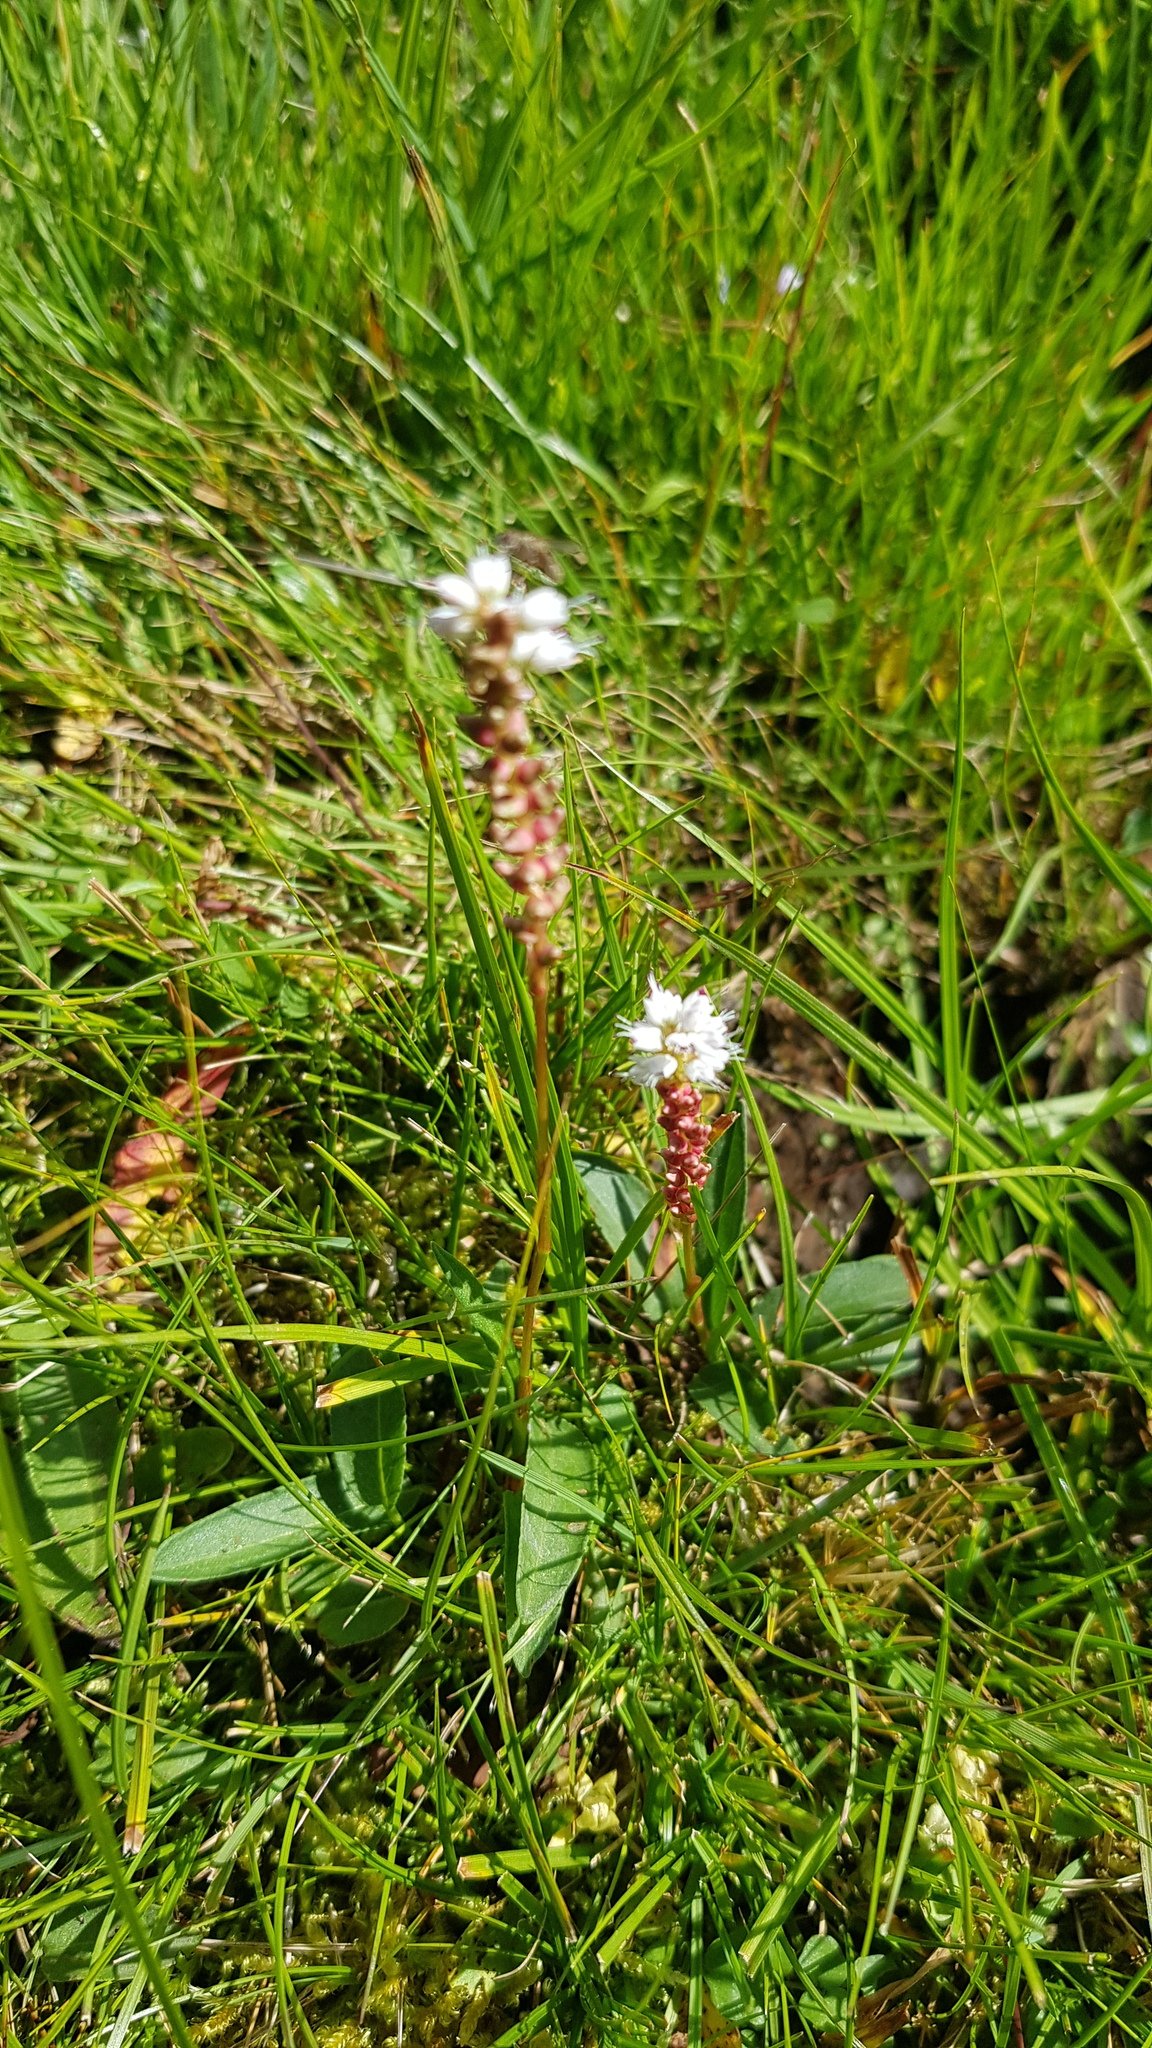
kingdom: Plantae
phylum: Tracheophyta
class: Magnoliopsida
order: Caryophyllales
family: Polygonaceae
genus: Bistorta
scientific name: Bistorta vivipara
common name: Alpine bistort
